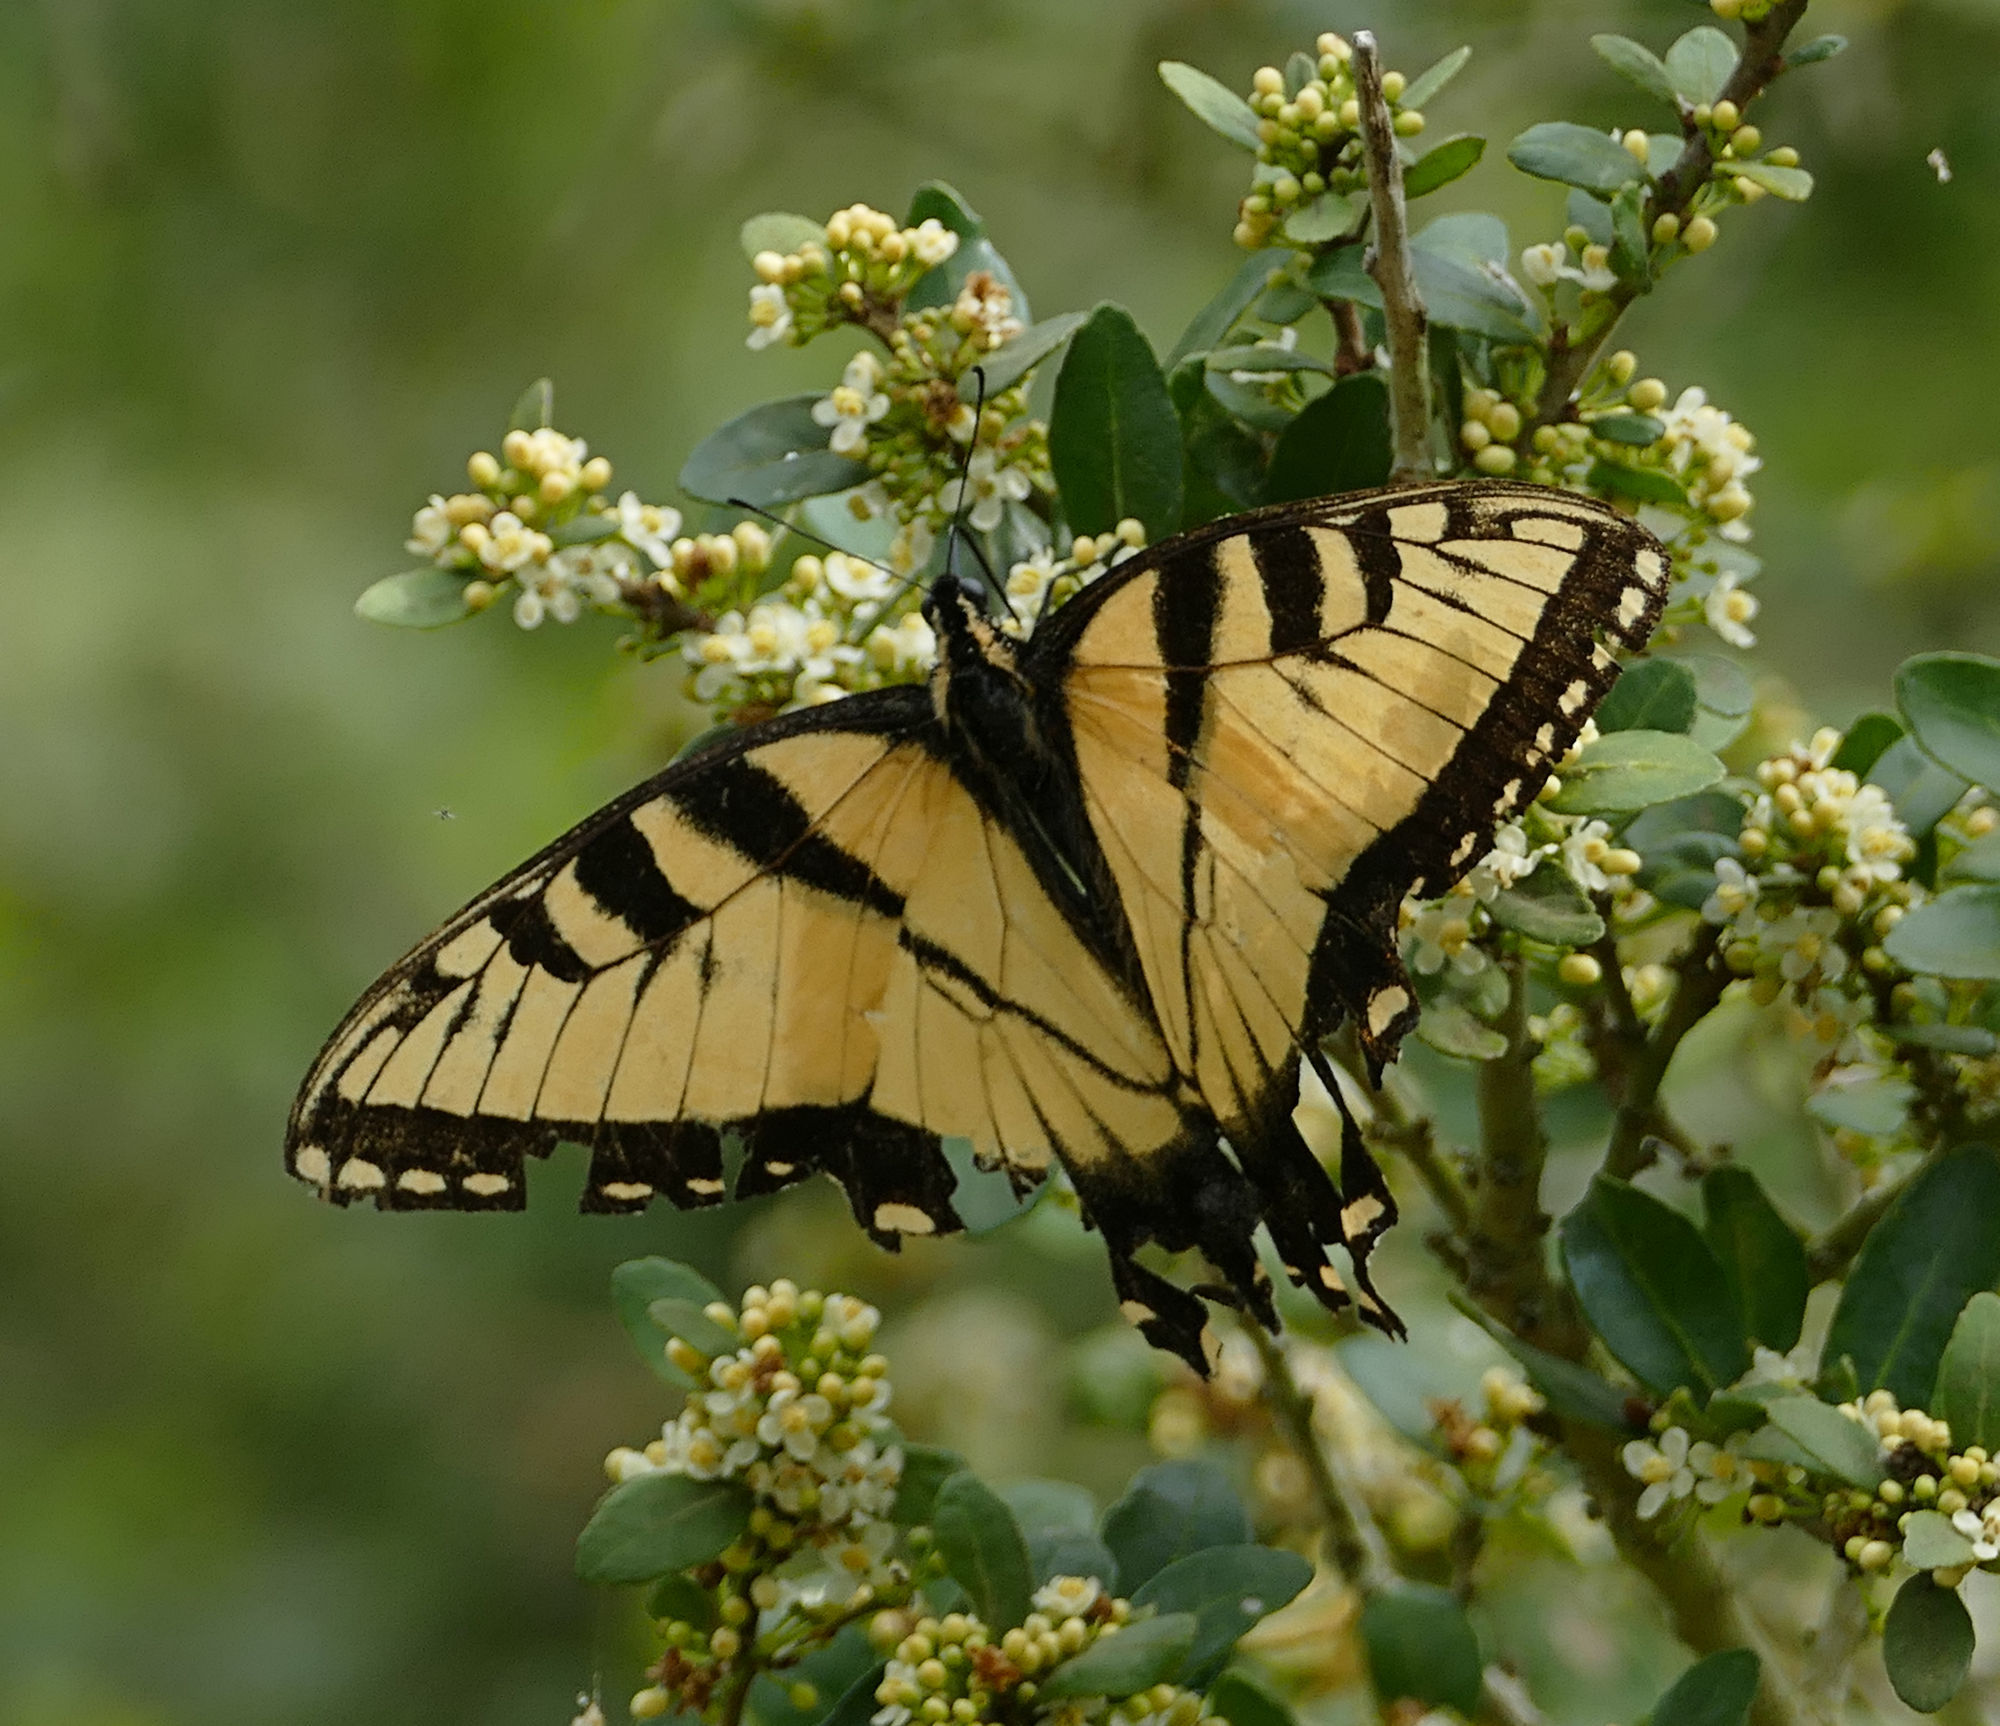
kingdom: Animalia
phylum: Arthropoda
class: Insecta
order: Lepidoptera
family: Papilionidae
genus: Papilio
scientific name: Papilio glaucus
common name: Tiger swallowtail
